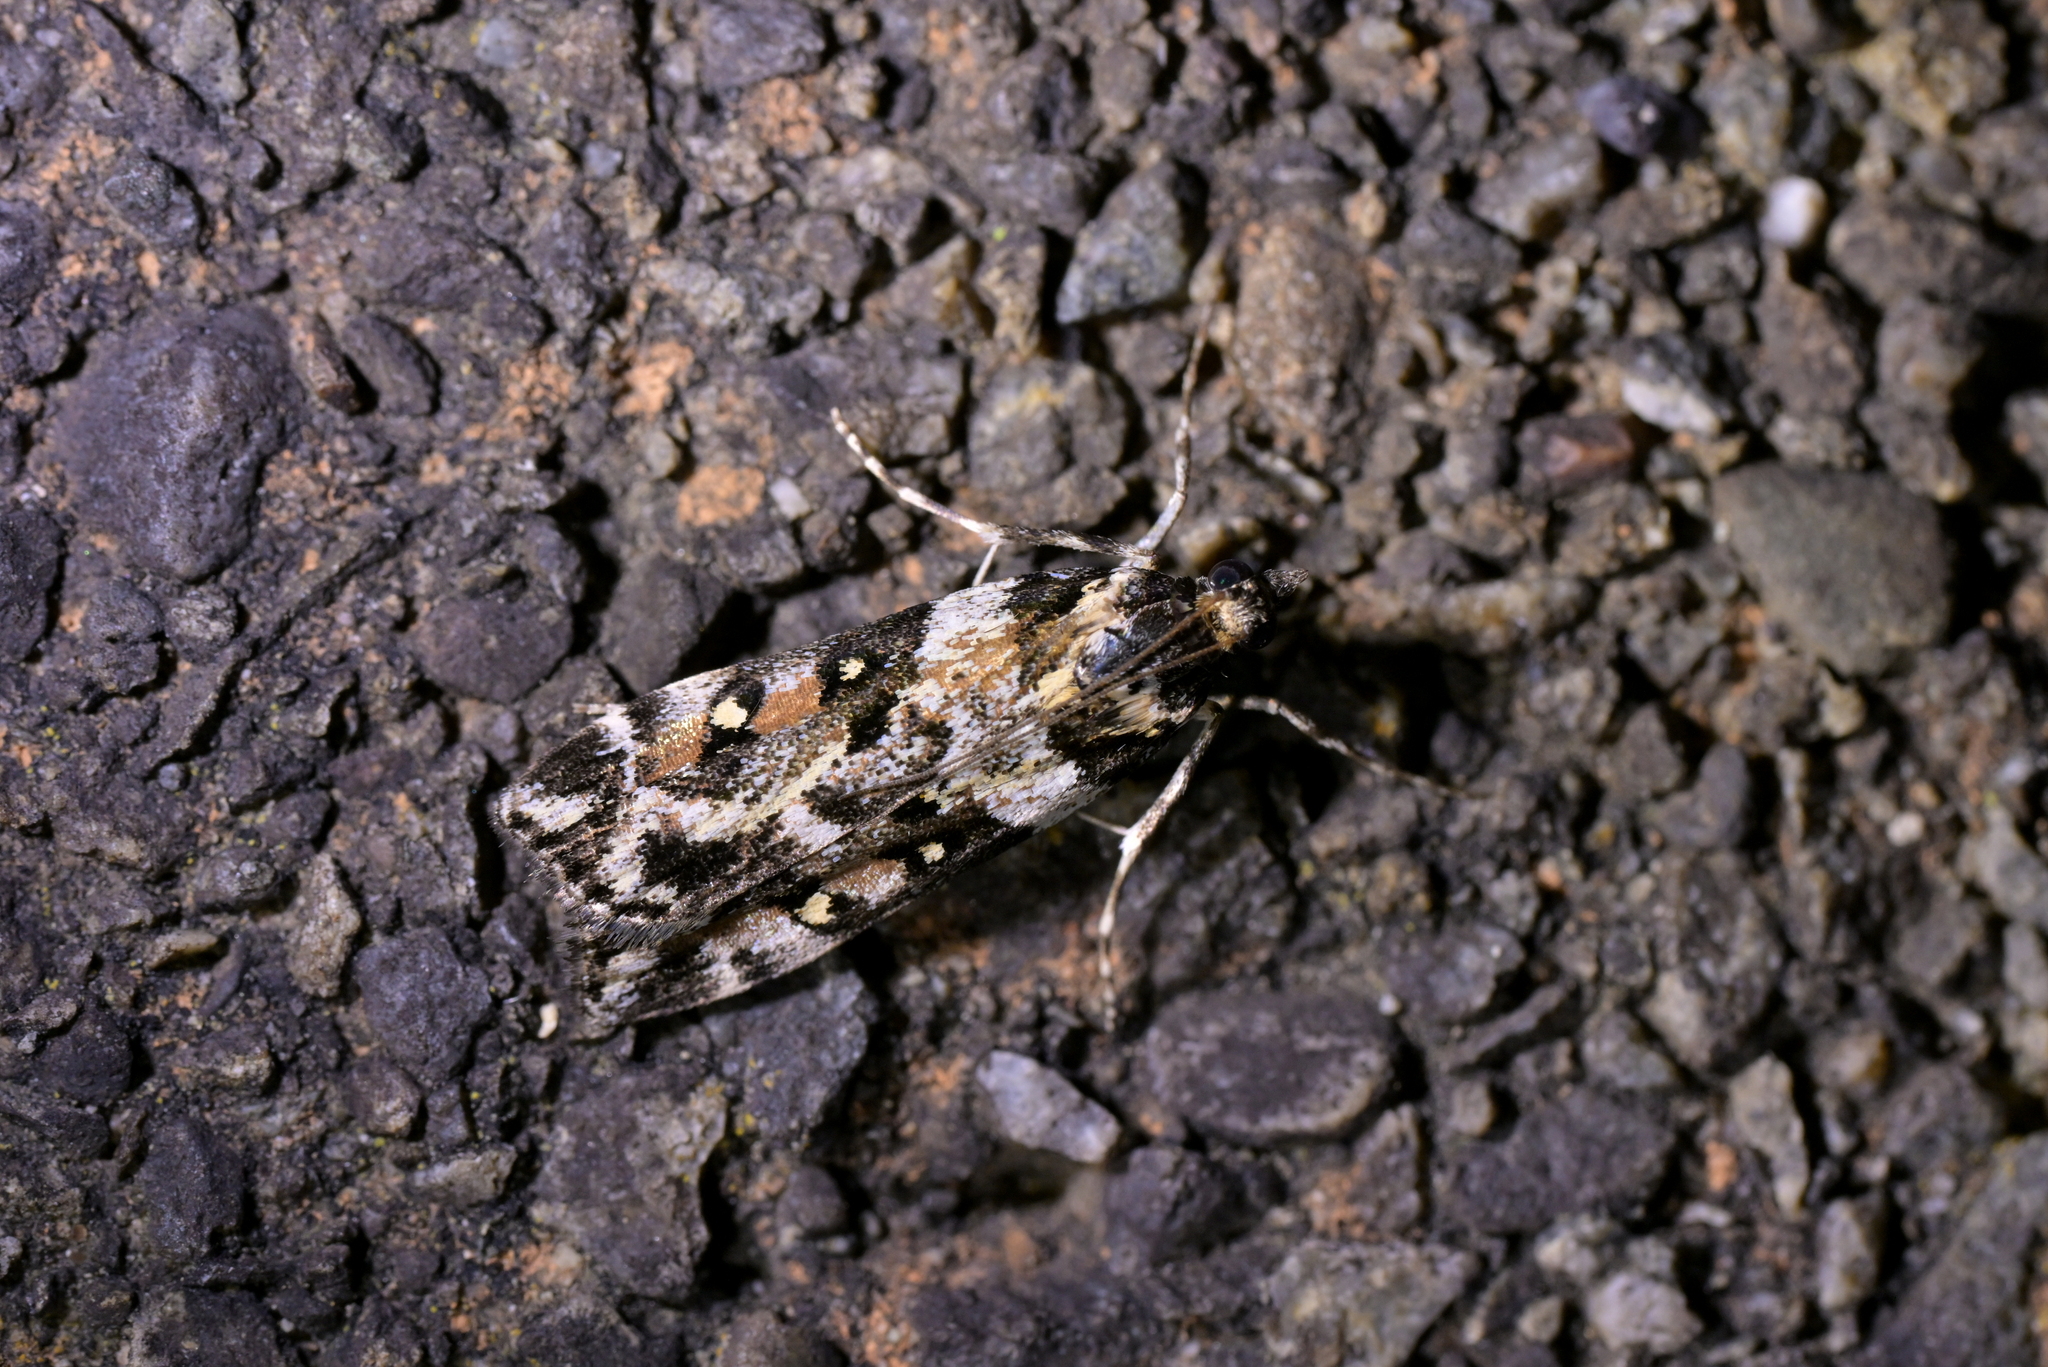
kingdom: Animalia
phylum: Arthropoda
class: Insecta
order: Lepidoptera
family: Crambidae
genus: Eudonia
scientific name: Eudonia diphtheralis
